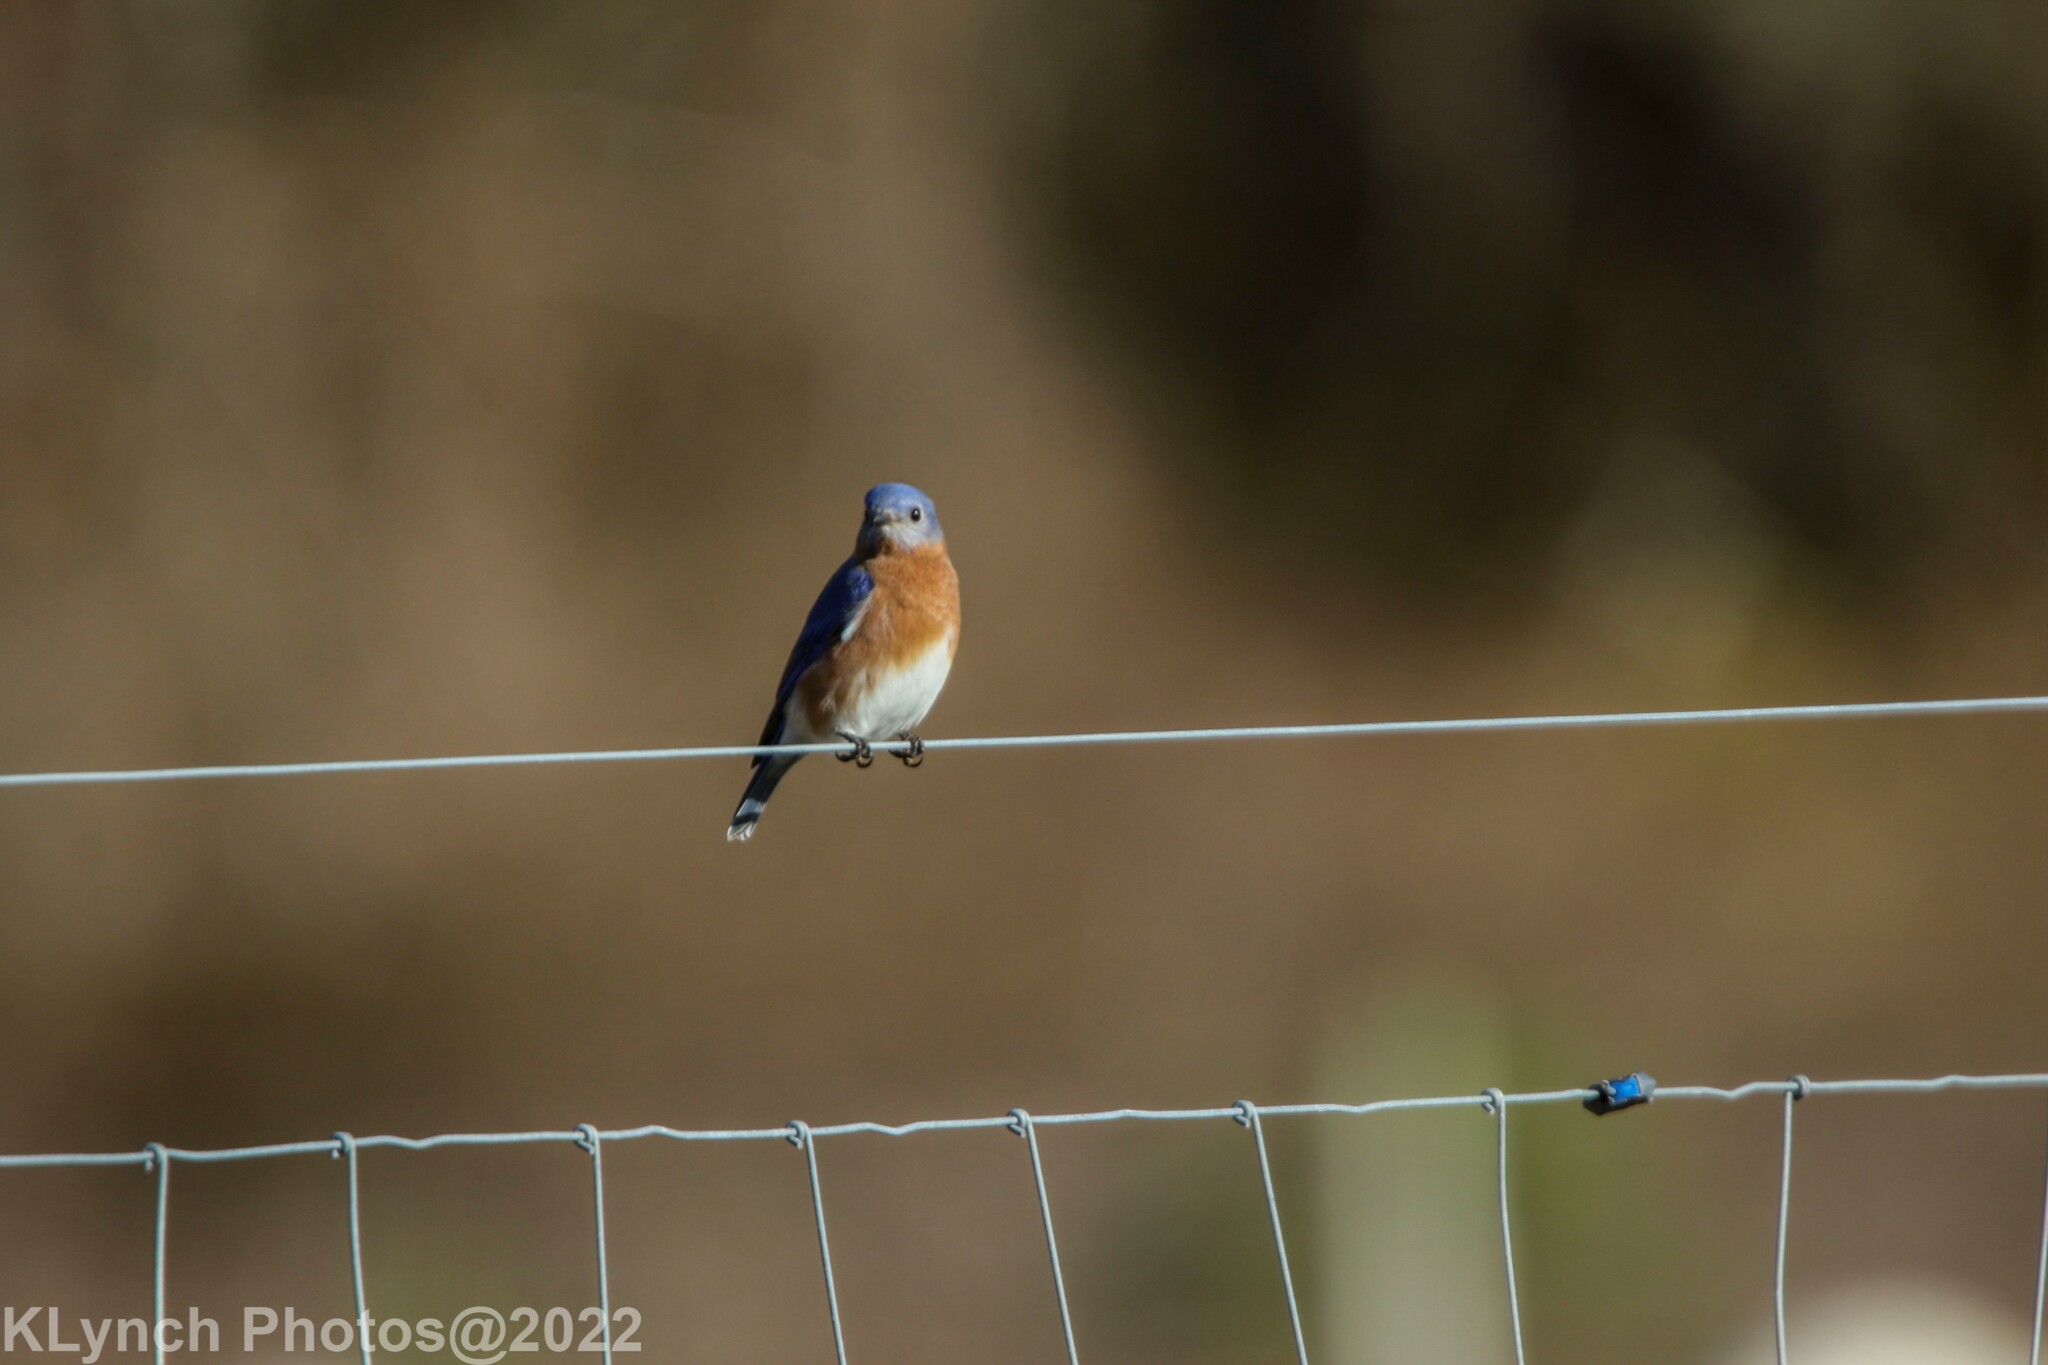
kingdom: Animalia
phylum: Chordata
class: Aves
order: Passeriformes
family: Turdidae
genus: Sialia
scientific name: Sialia sialis
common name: Eastern bluebird
